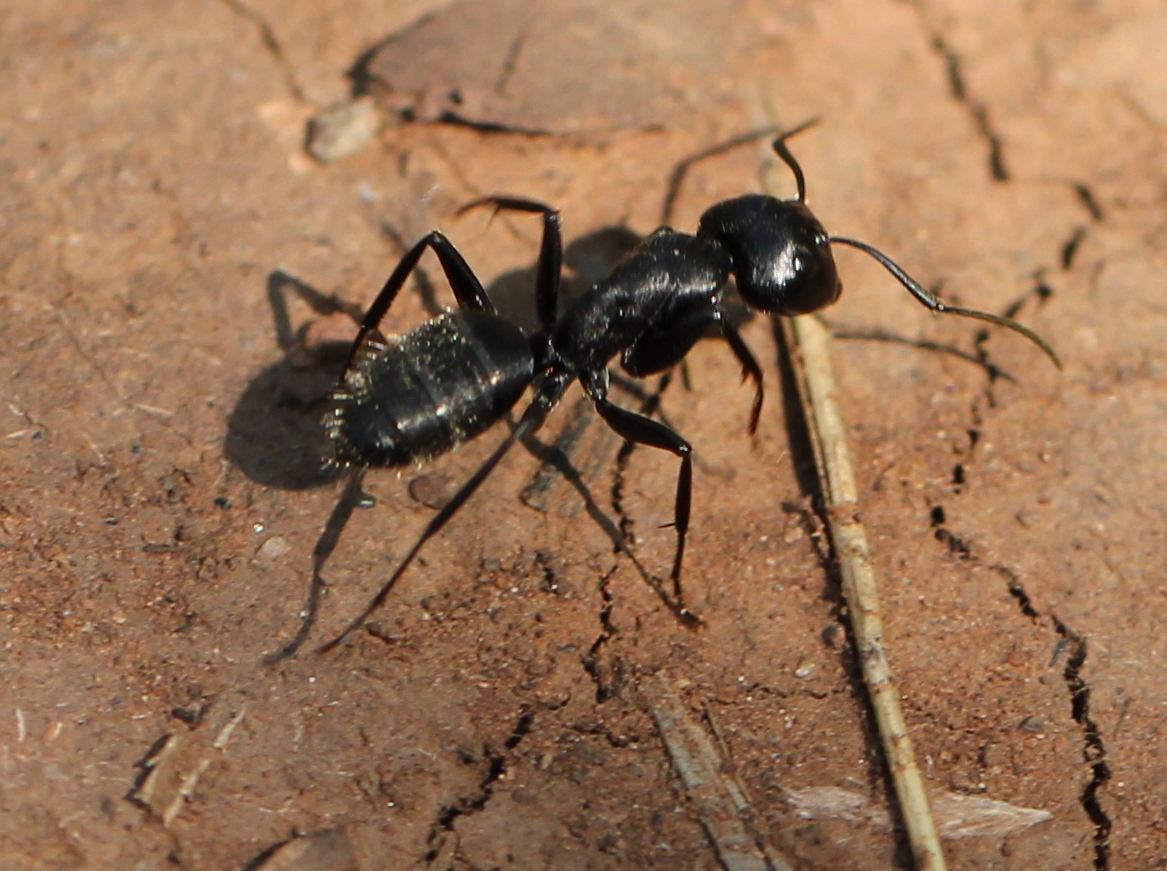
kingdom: Animalia
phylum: Arthropoda
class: Insecta
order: Hymenoptera
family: Formicidae
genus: Camponotus
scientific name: Camponotus vagus
